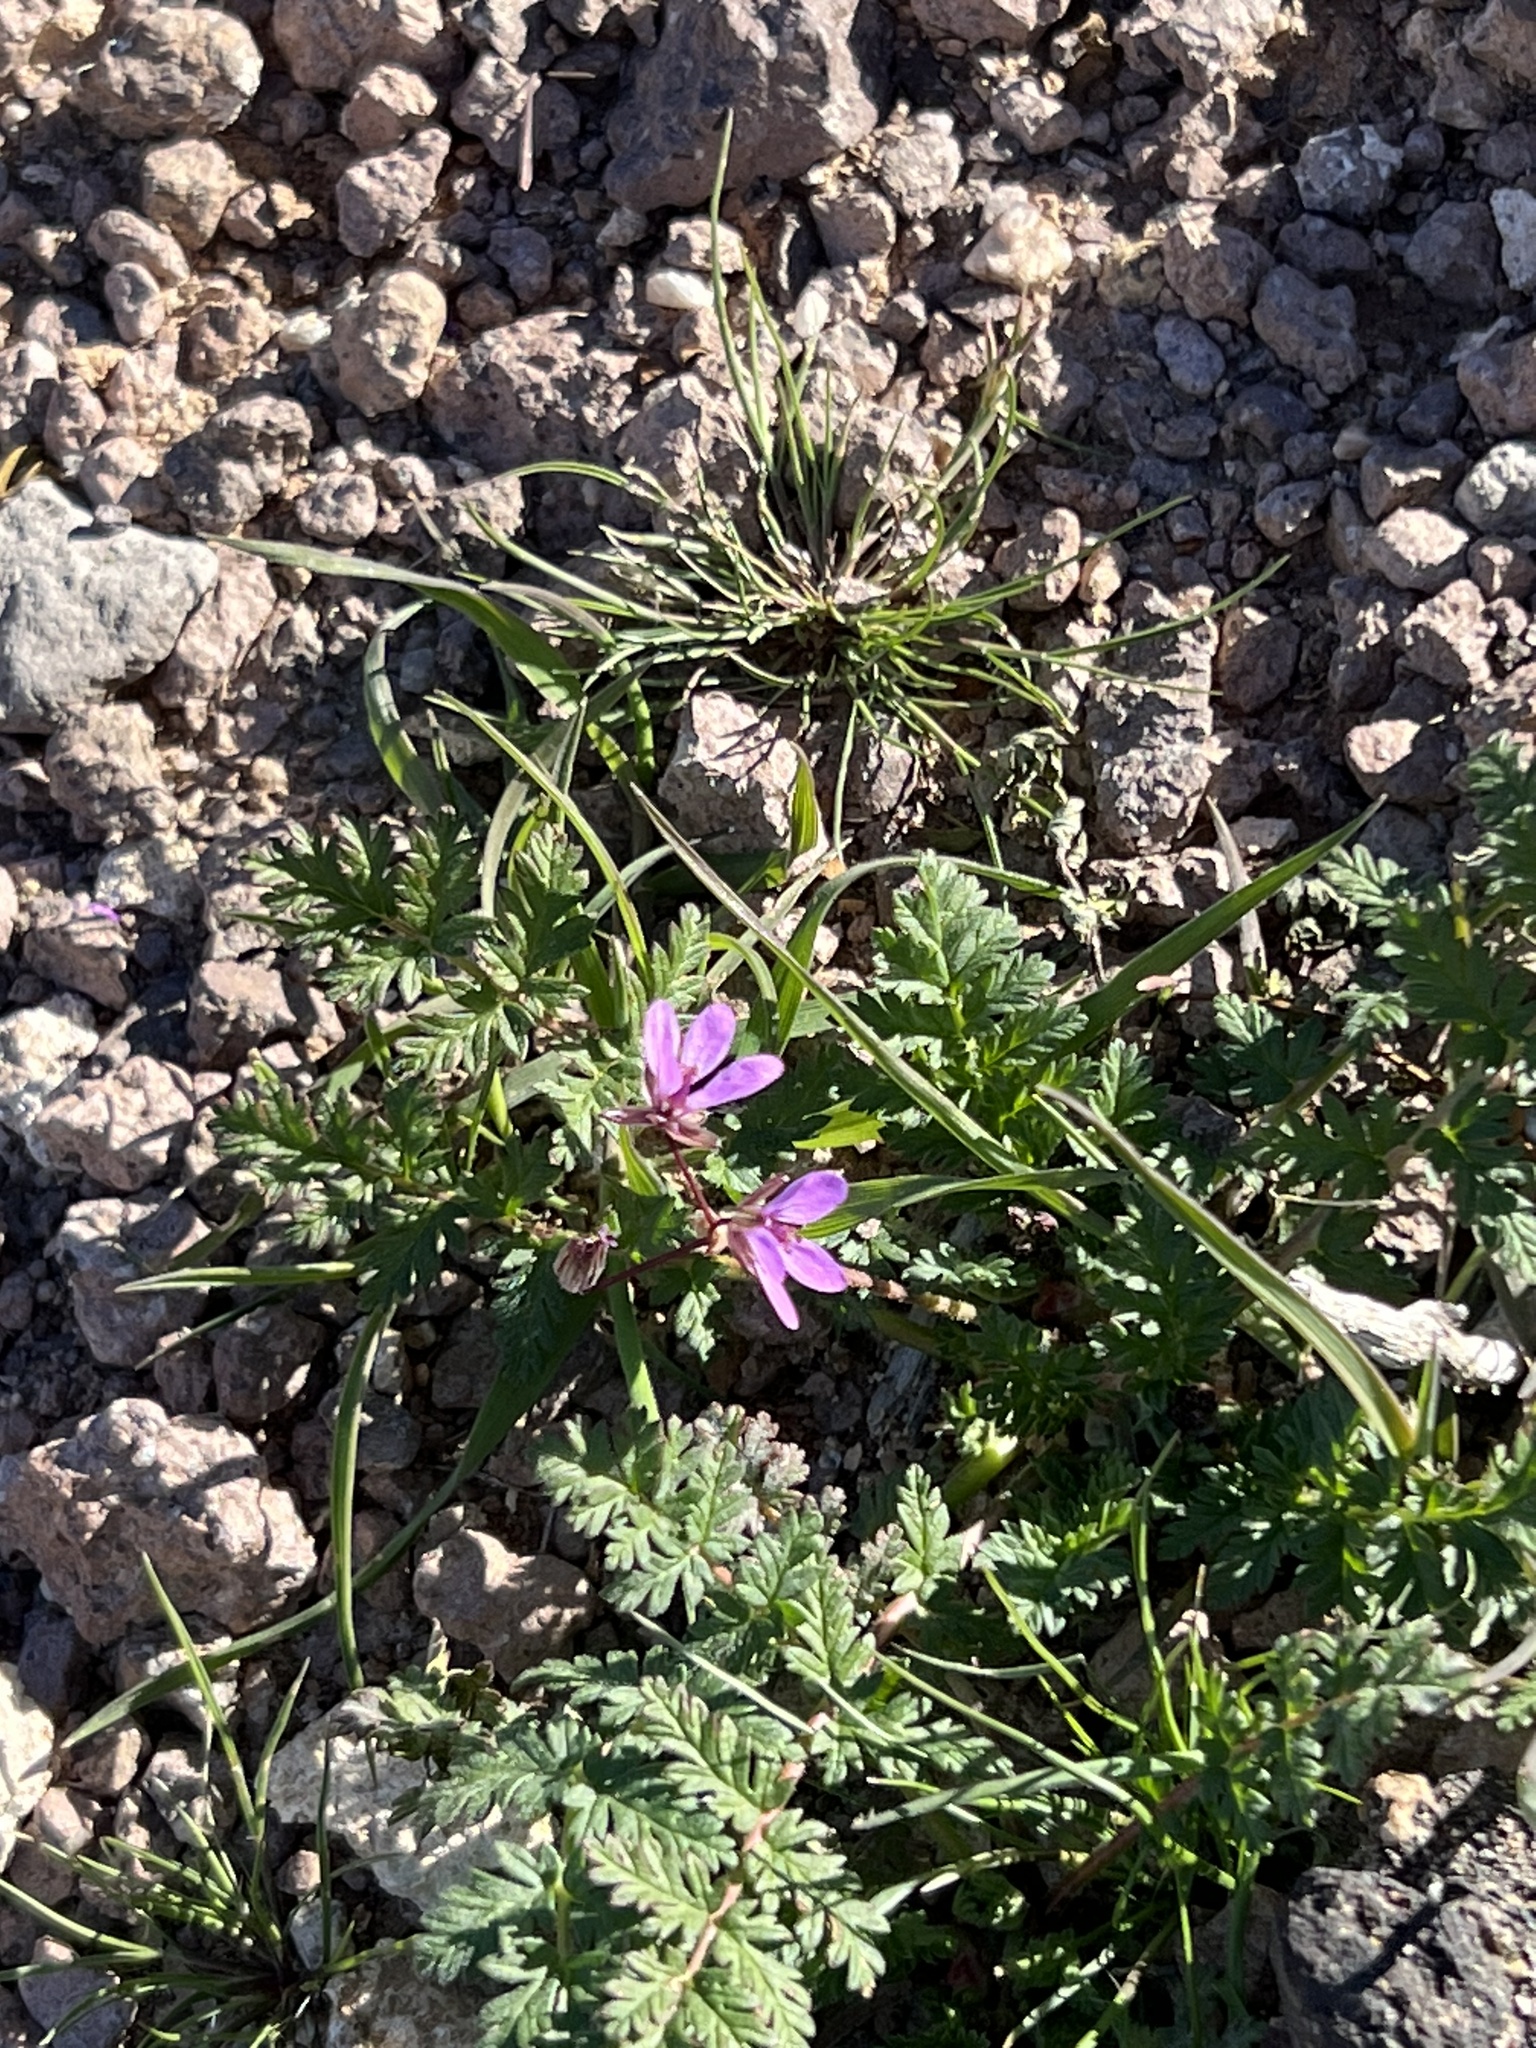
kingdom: Plantae
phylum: Tracheophyta
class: Magnoliopsida
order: Geraniales
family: Geraniaceae
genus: Erodium
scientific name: Erodium cicutarium
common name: Common stork's-bill
